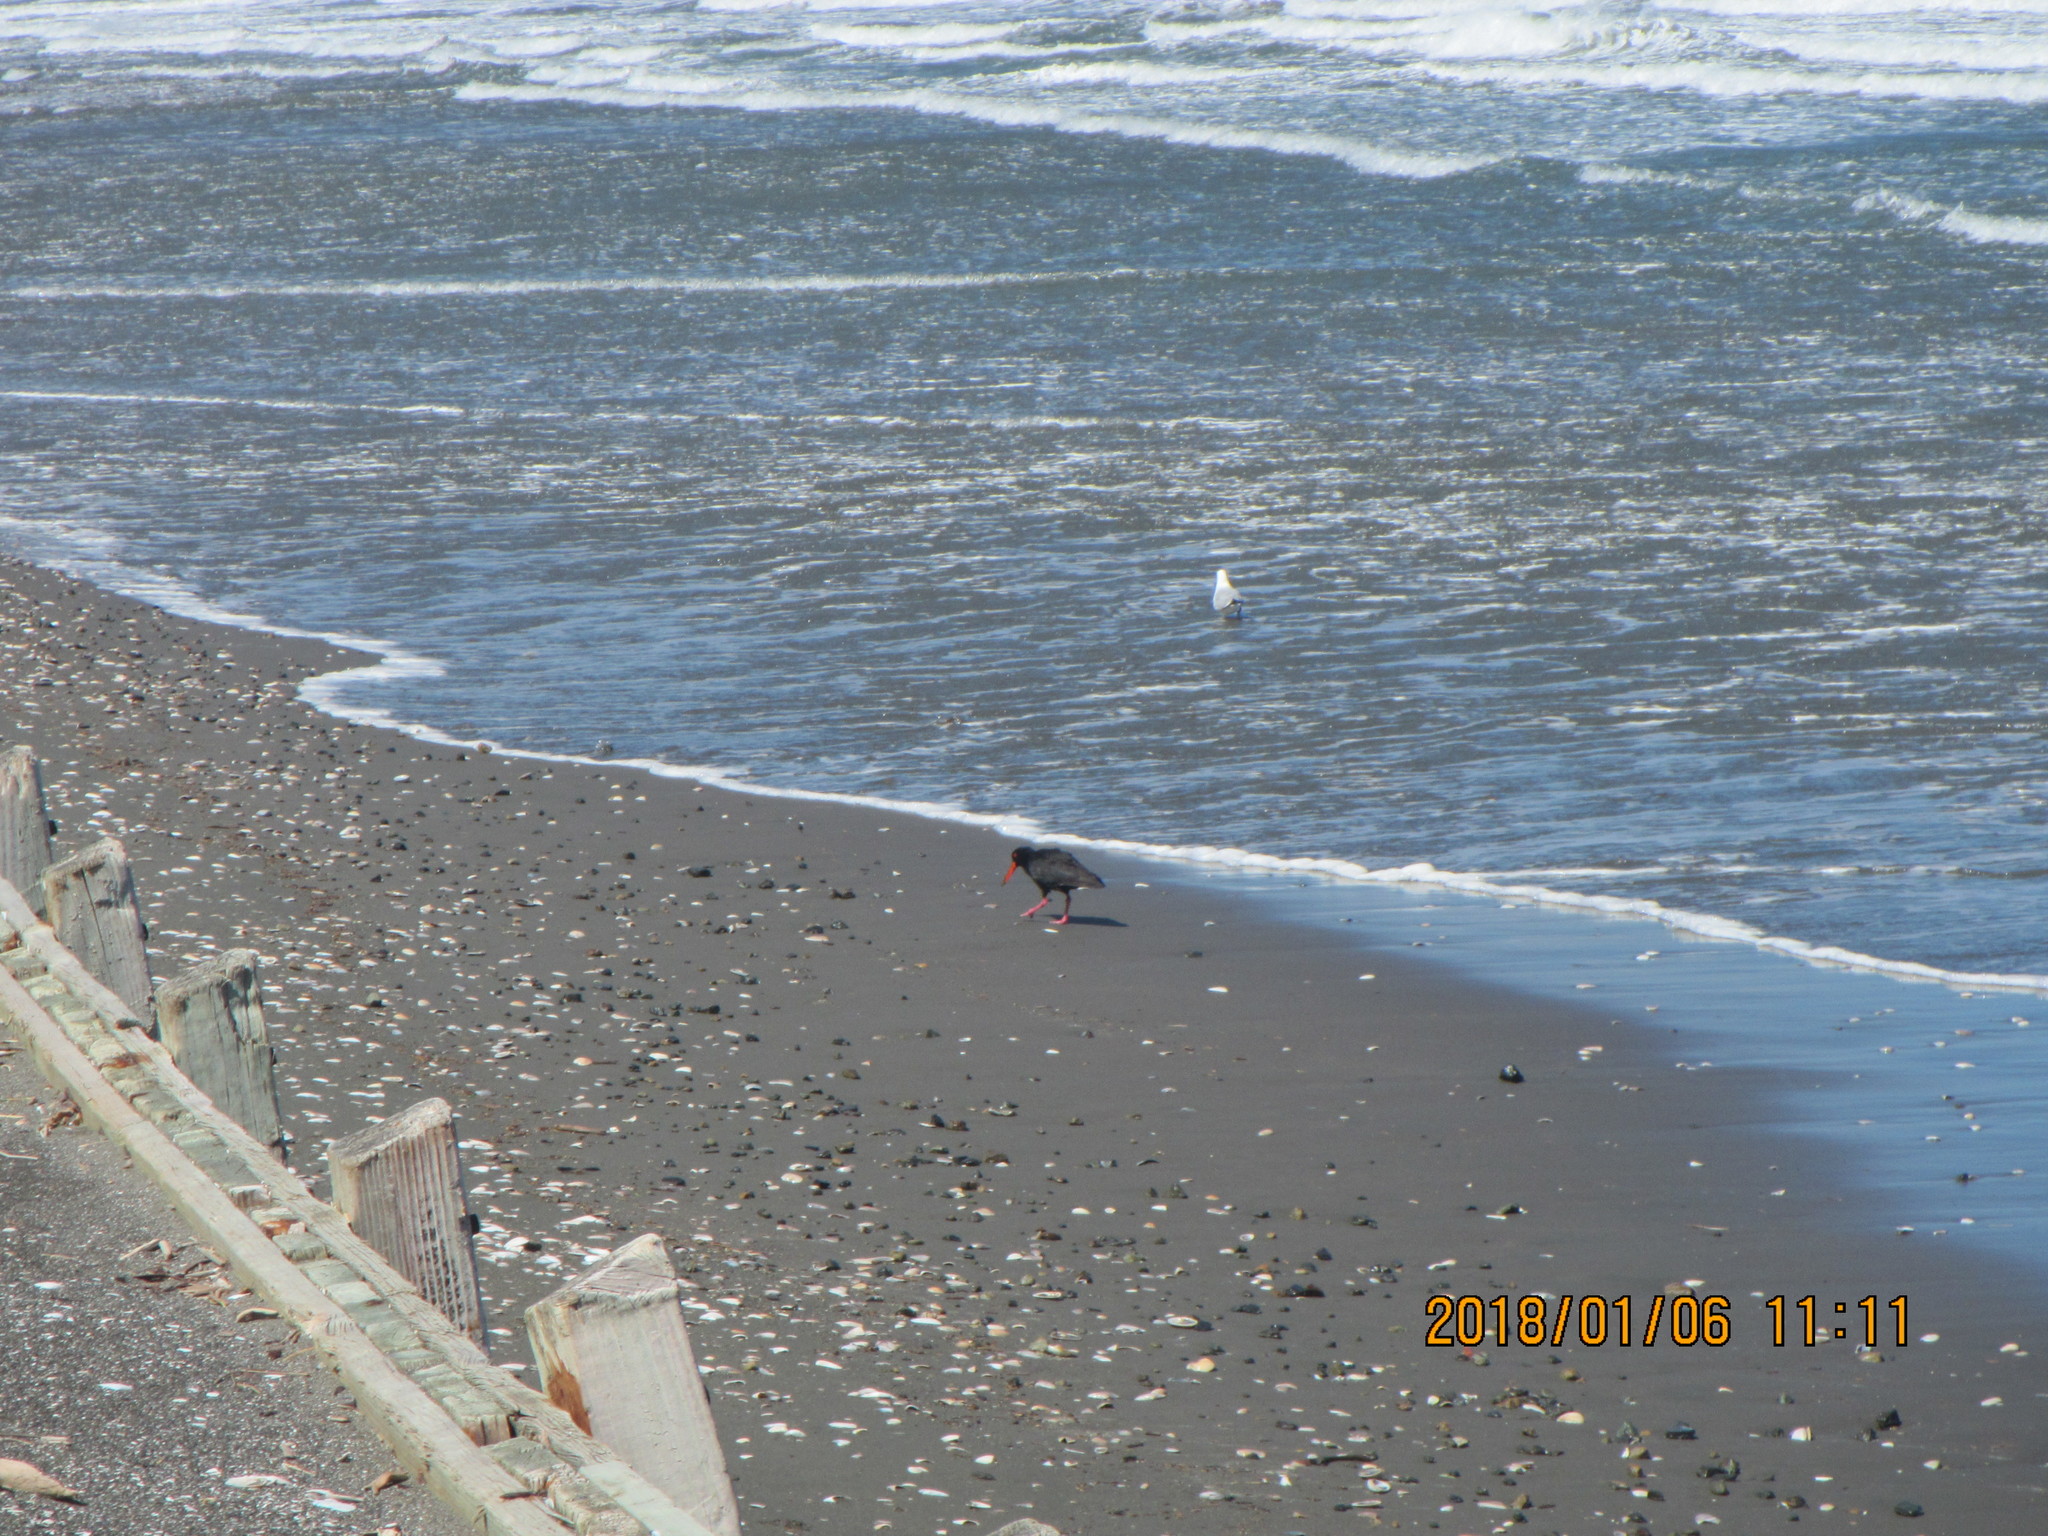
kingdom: Animalia
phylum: Chordata
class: Aves
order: Charadriiformes
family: Haematopodidae
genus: Haematopus
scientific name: Haematopus unicolor
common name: Variable oystercatcher
